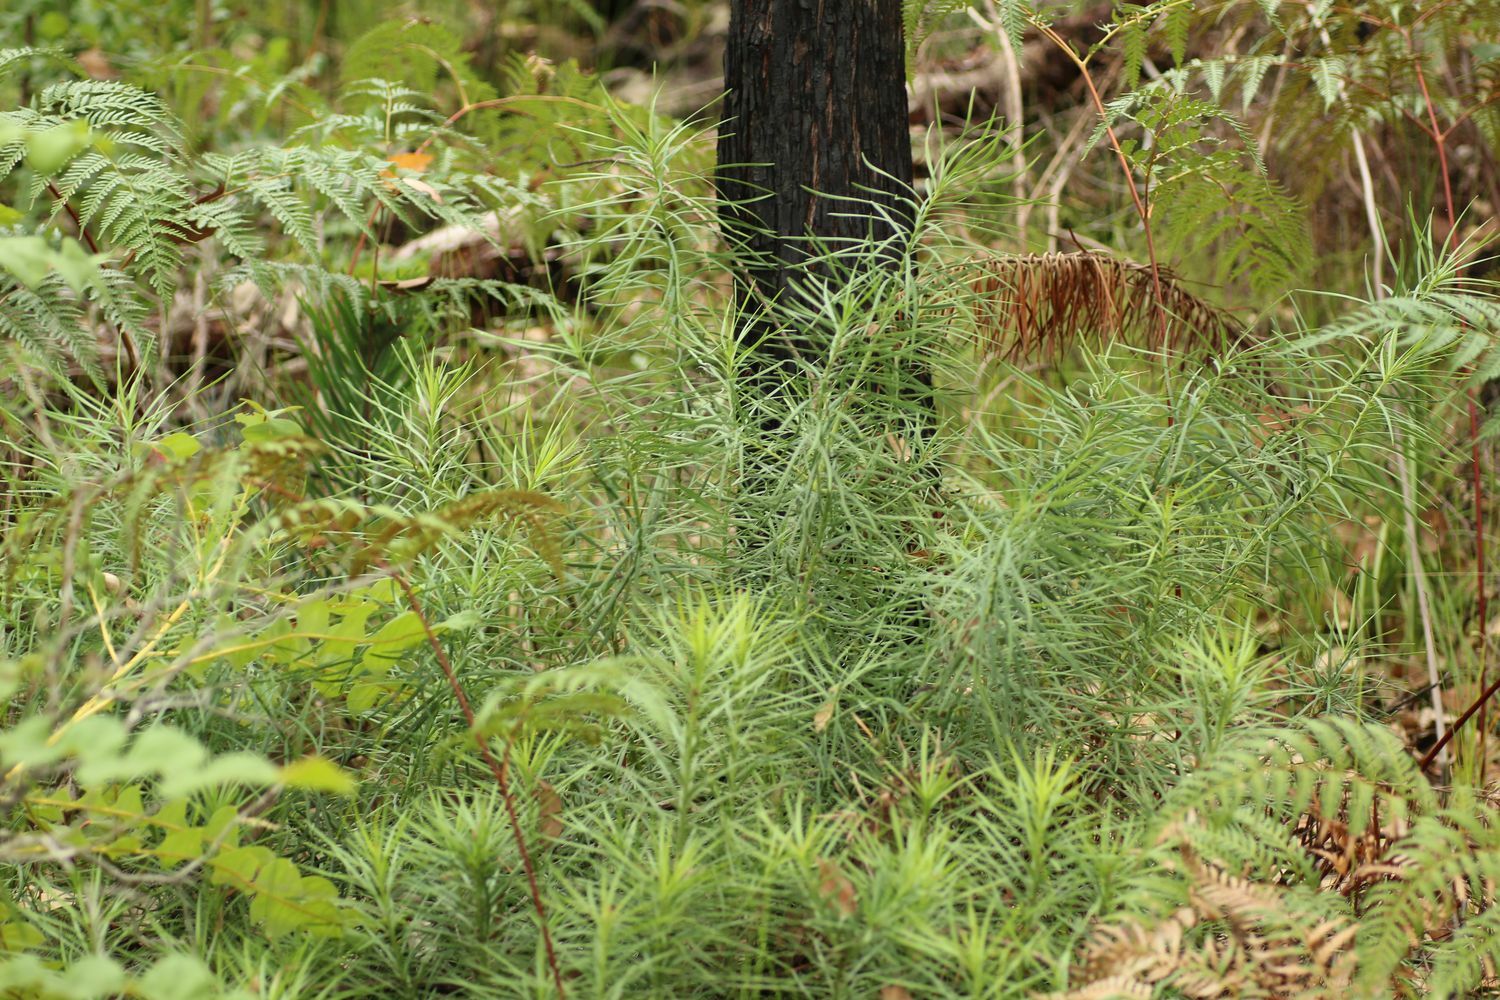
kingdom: Plantae
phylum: Tracheophyta
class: Pinopsida
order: Pinales
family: Podocarpaceae
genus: Podocarpus
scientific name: Podocarpus drouynianus
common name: Emu berry
